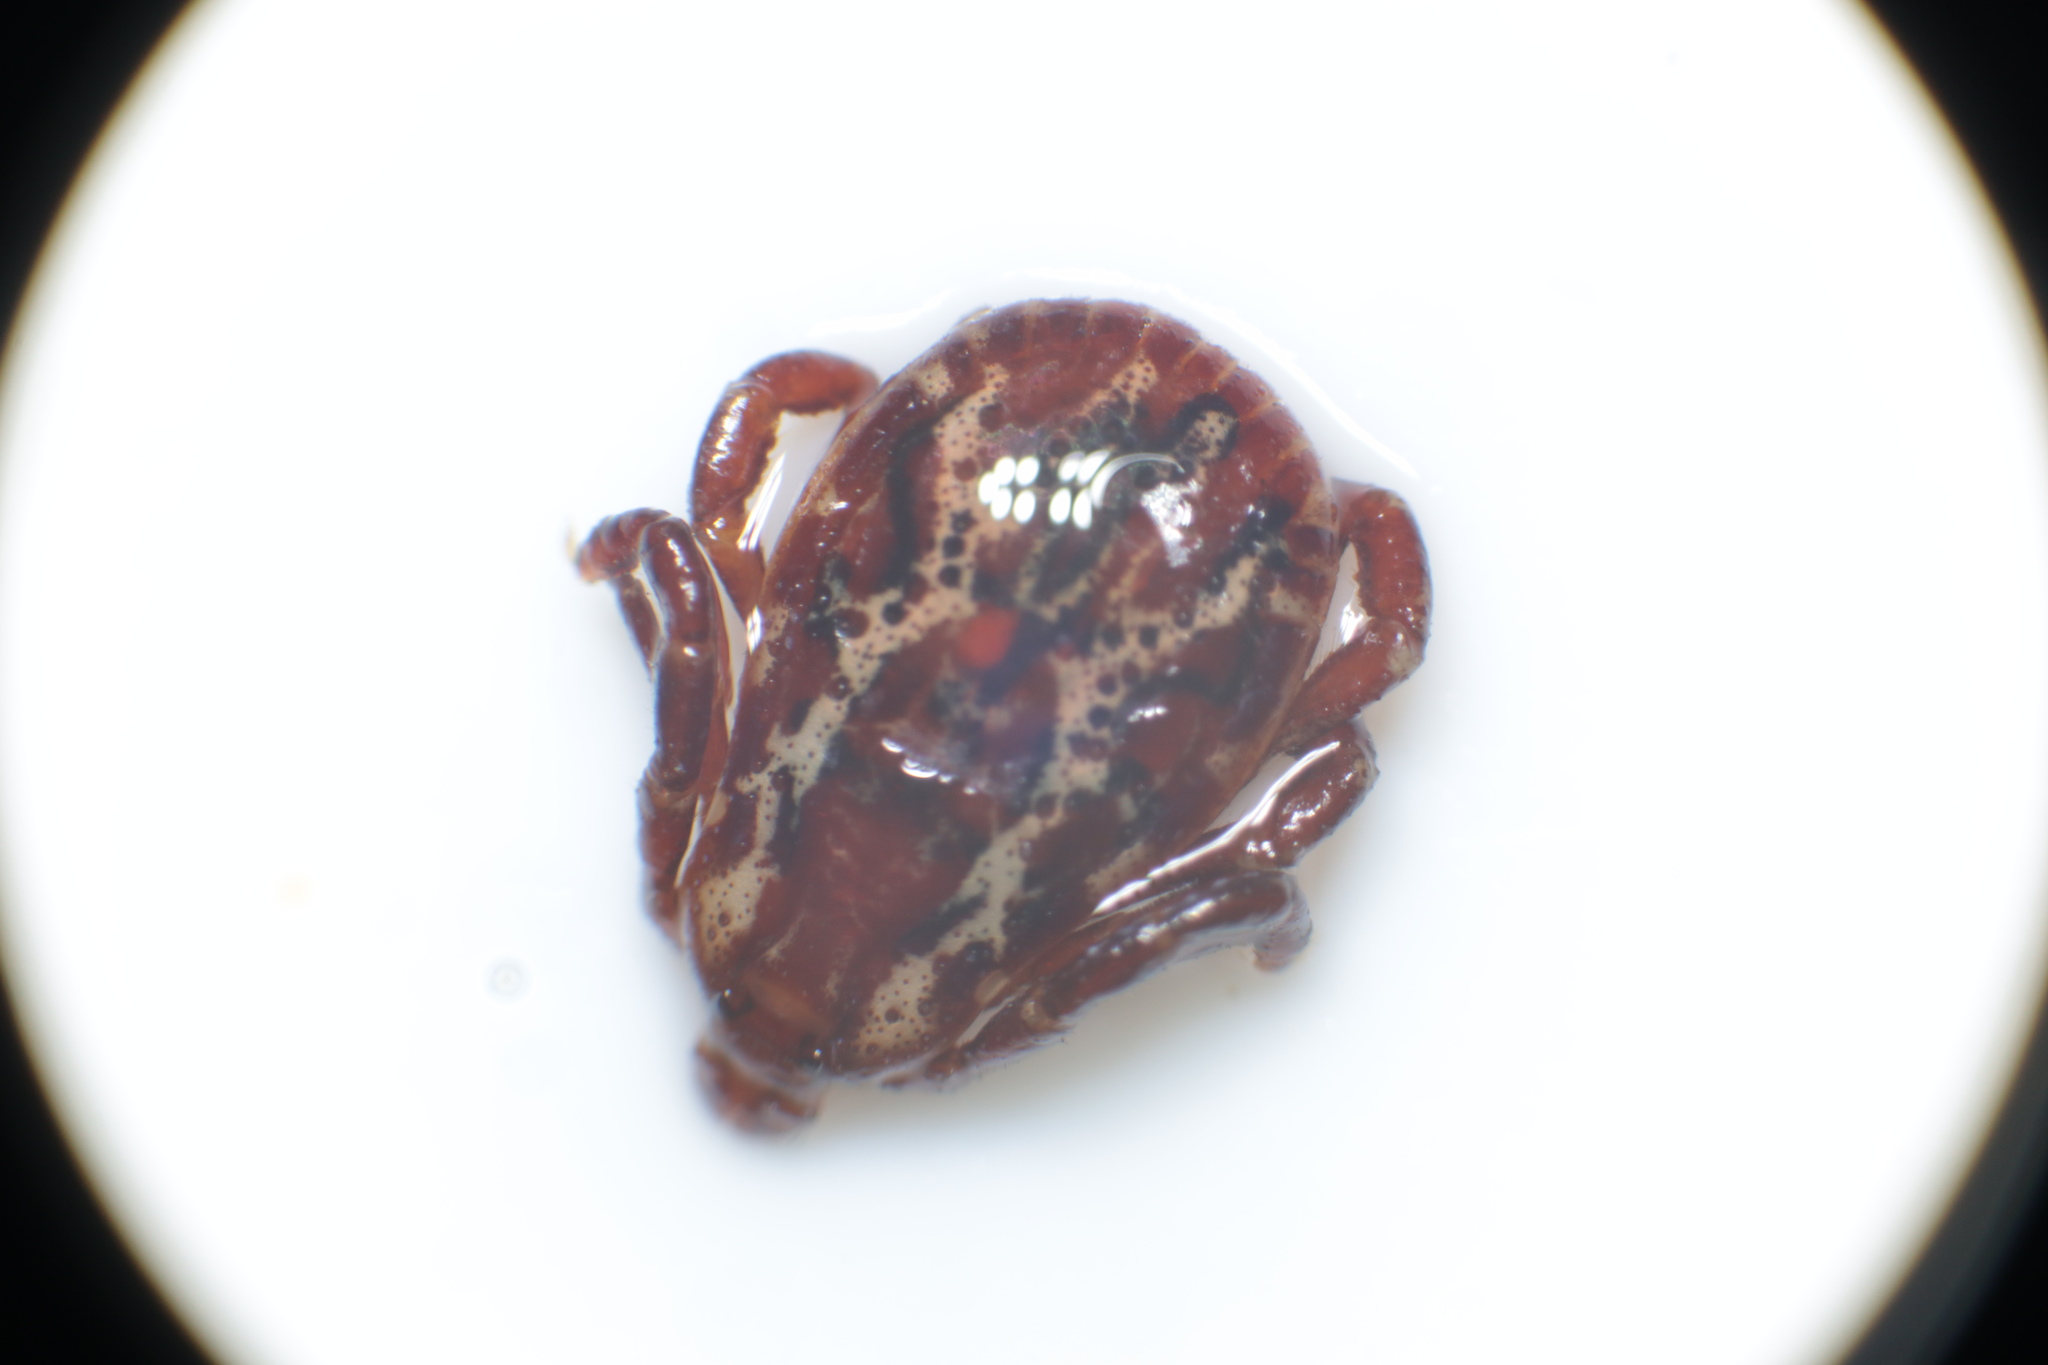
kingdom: Animalia
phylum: Arthropoda
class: Arachnida
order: Ixodida
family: Ixodidae
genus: Dermacentor
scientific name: Dermacentor variabilis
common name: American dog tick
